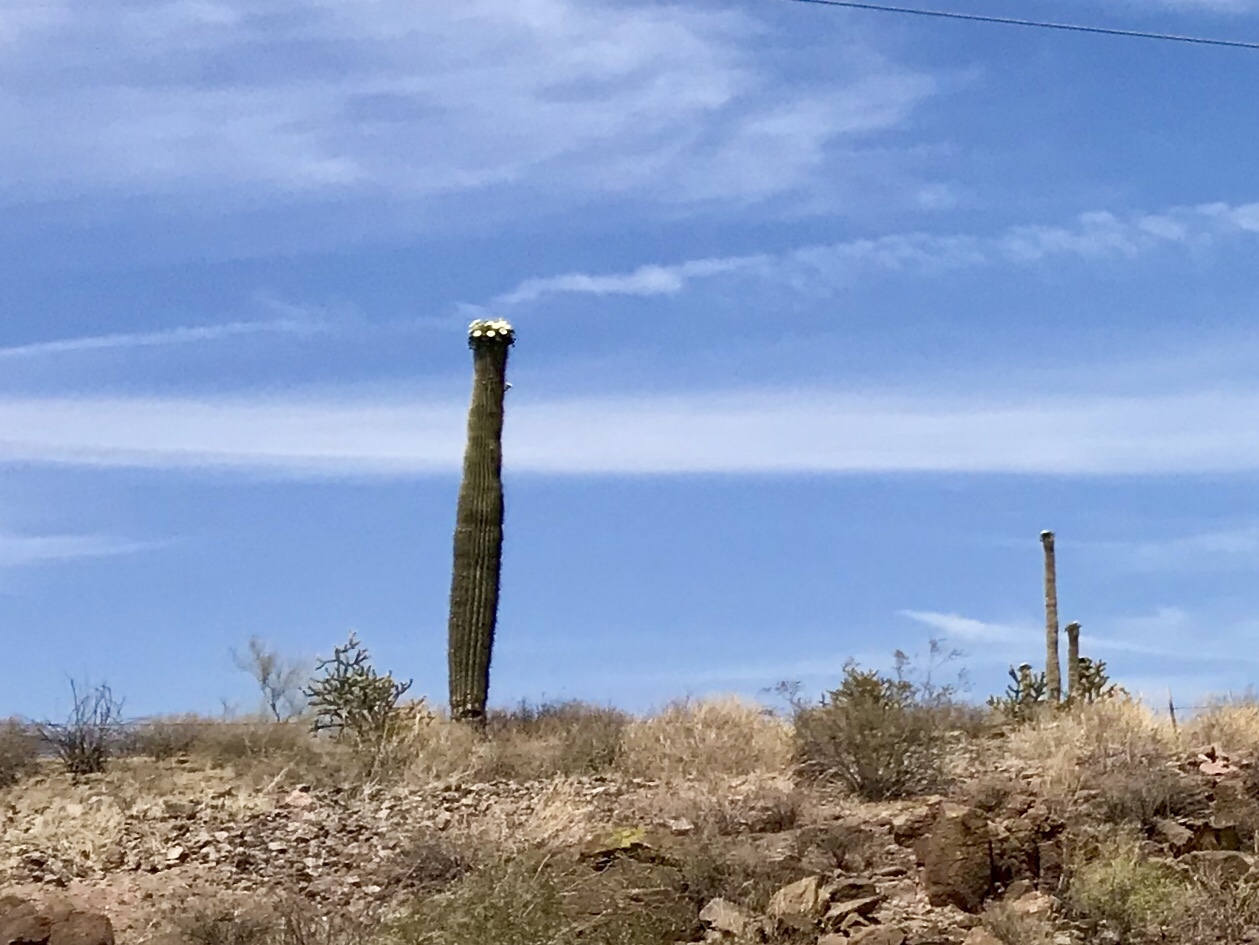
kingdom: Plantae
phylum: Tracheophyta
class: Magnoliopsida
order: Caryophyllales
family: Cactaceae
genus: Carnegiea
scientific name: Carnegiea gigantea
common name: Saguaro
